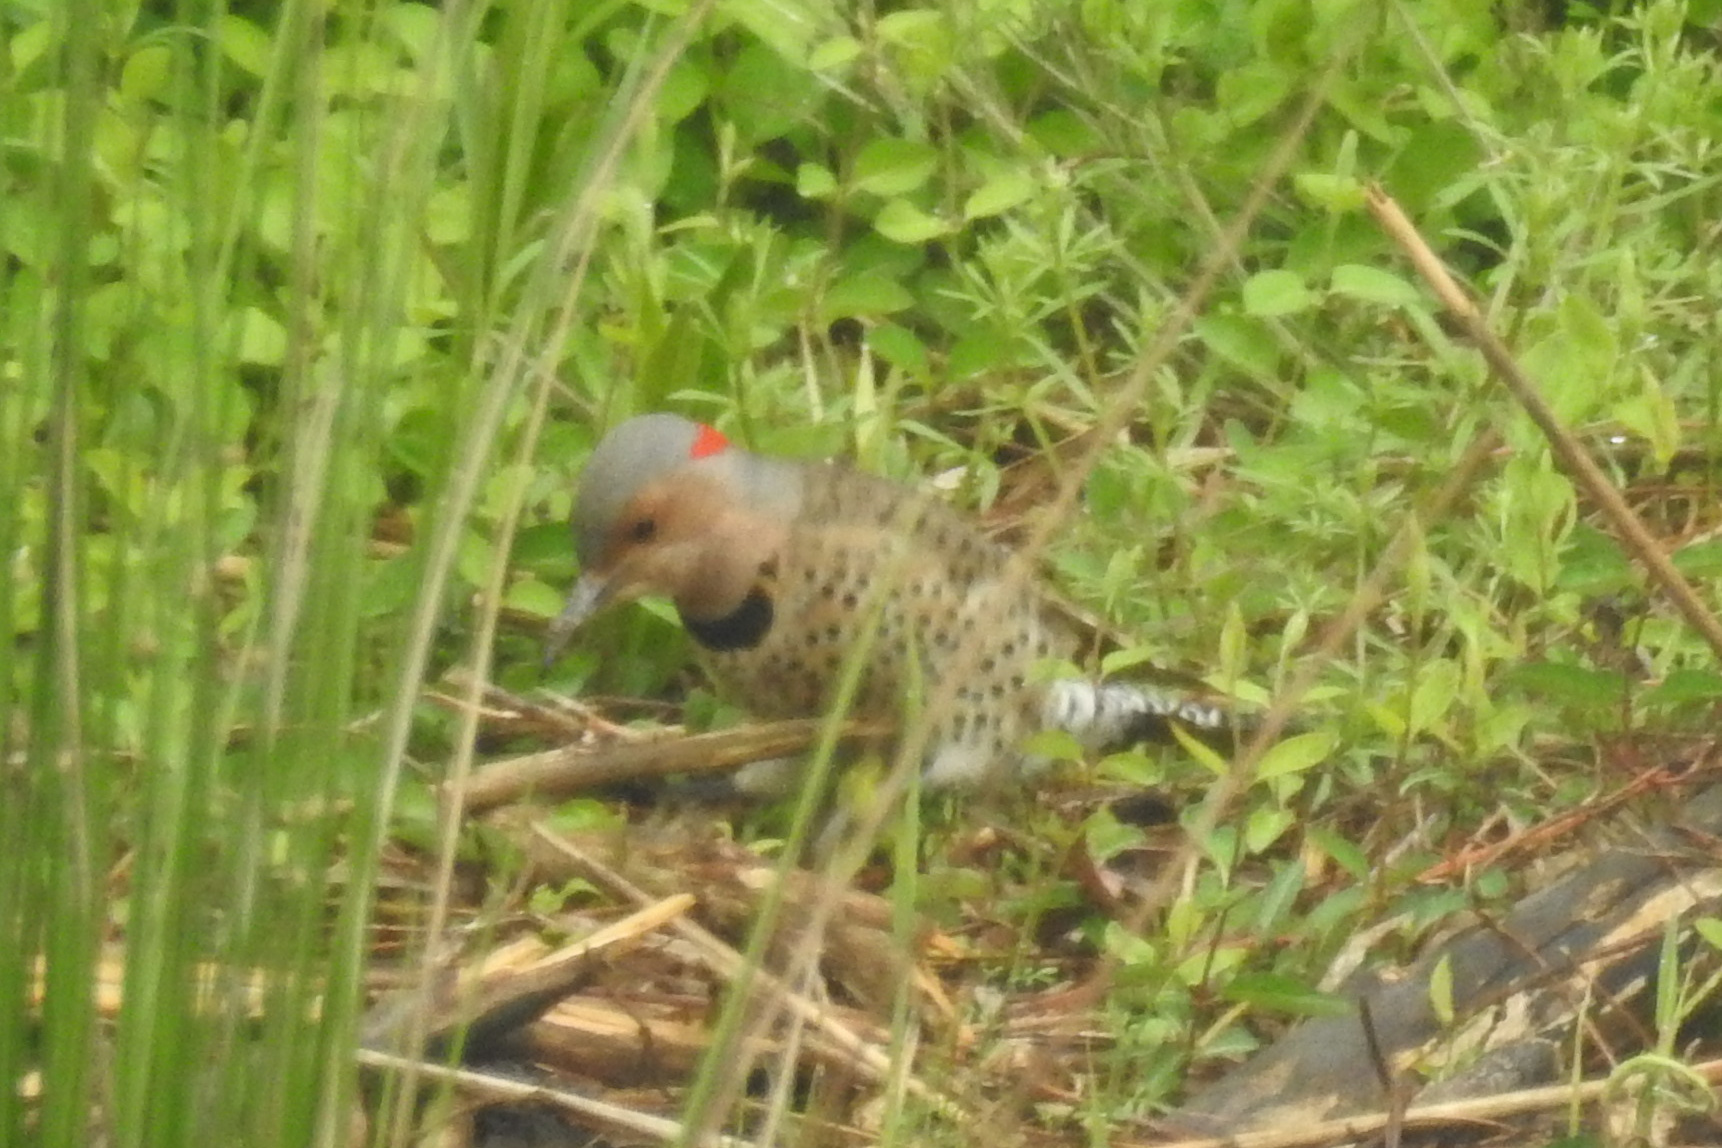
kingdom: Animalia
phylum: Chordata
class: Aves
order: Piciformes
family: Picidae
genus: Colaptes
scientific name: Colaptes auratus
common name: Northern flicker
